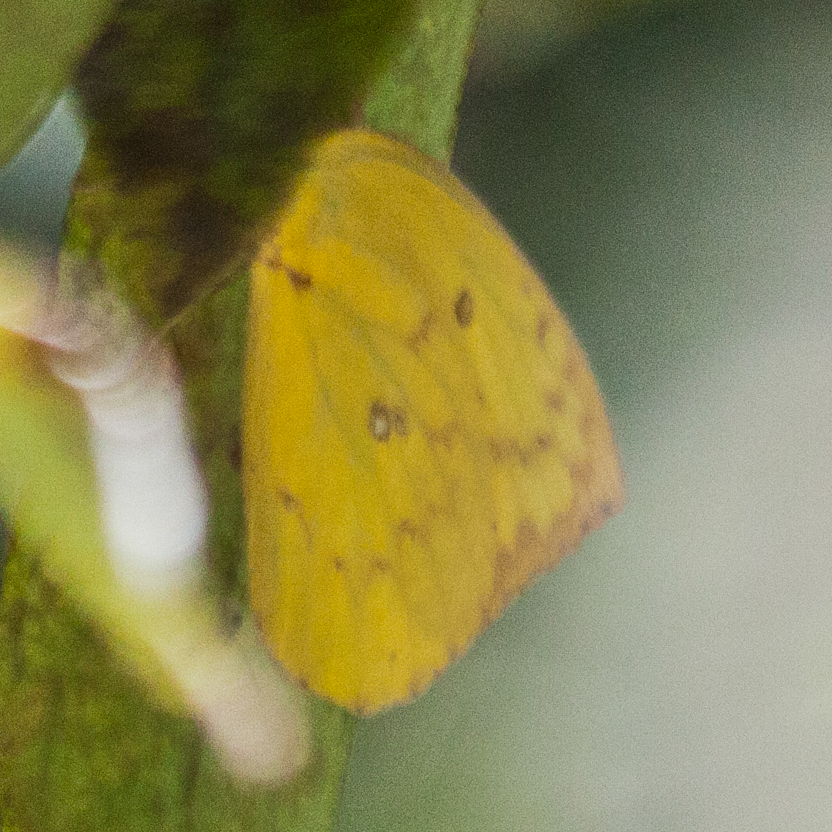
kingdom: Animalia
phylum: Arthropoda
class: Insecta
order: Lepidoptera
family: Pieridae
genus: Catopsilia
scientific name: Catopsilia pomona
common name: Common emigrant
